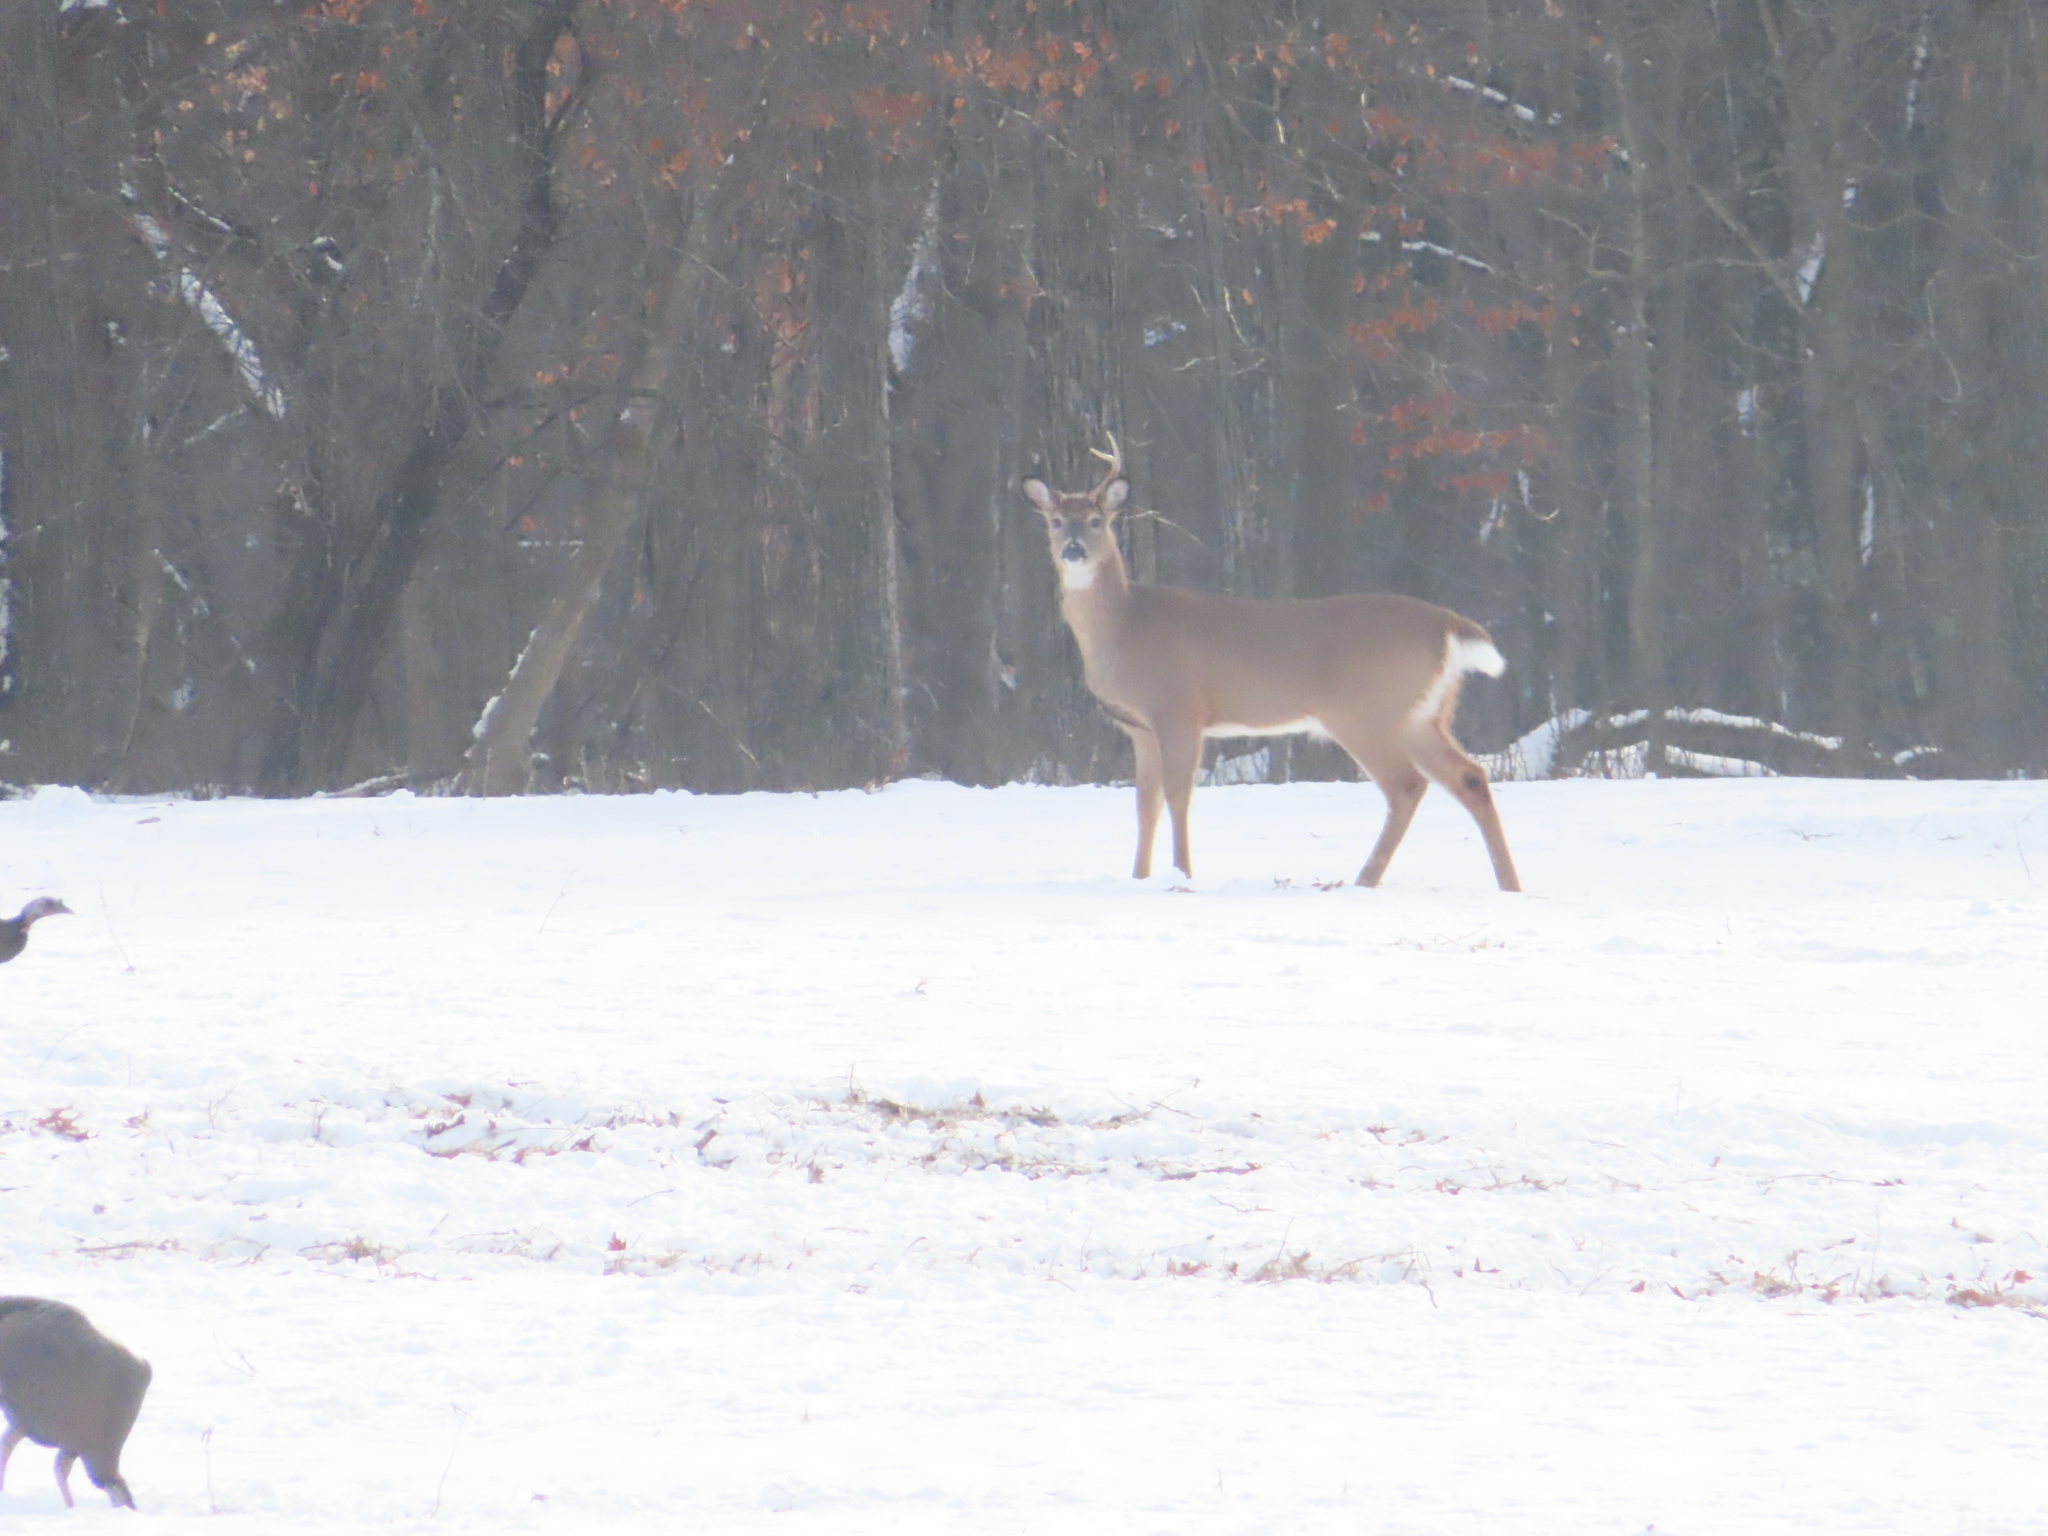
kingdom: Animalia
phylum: Chordata
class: Aves
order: Galliformes
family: Phasianidae
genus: Meleagris
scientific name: Meleagris gallopavo
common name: Wild turkey
